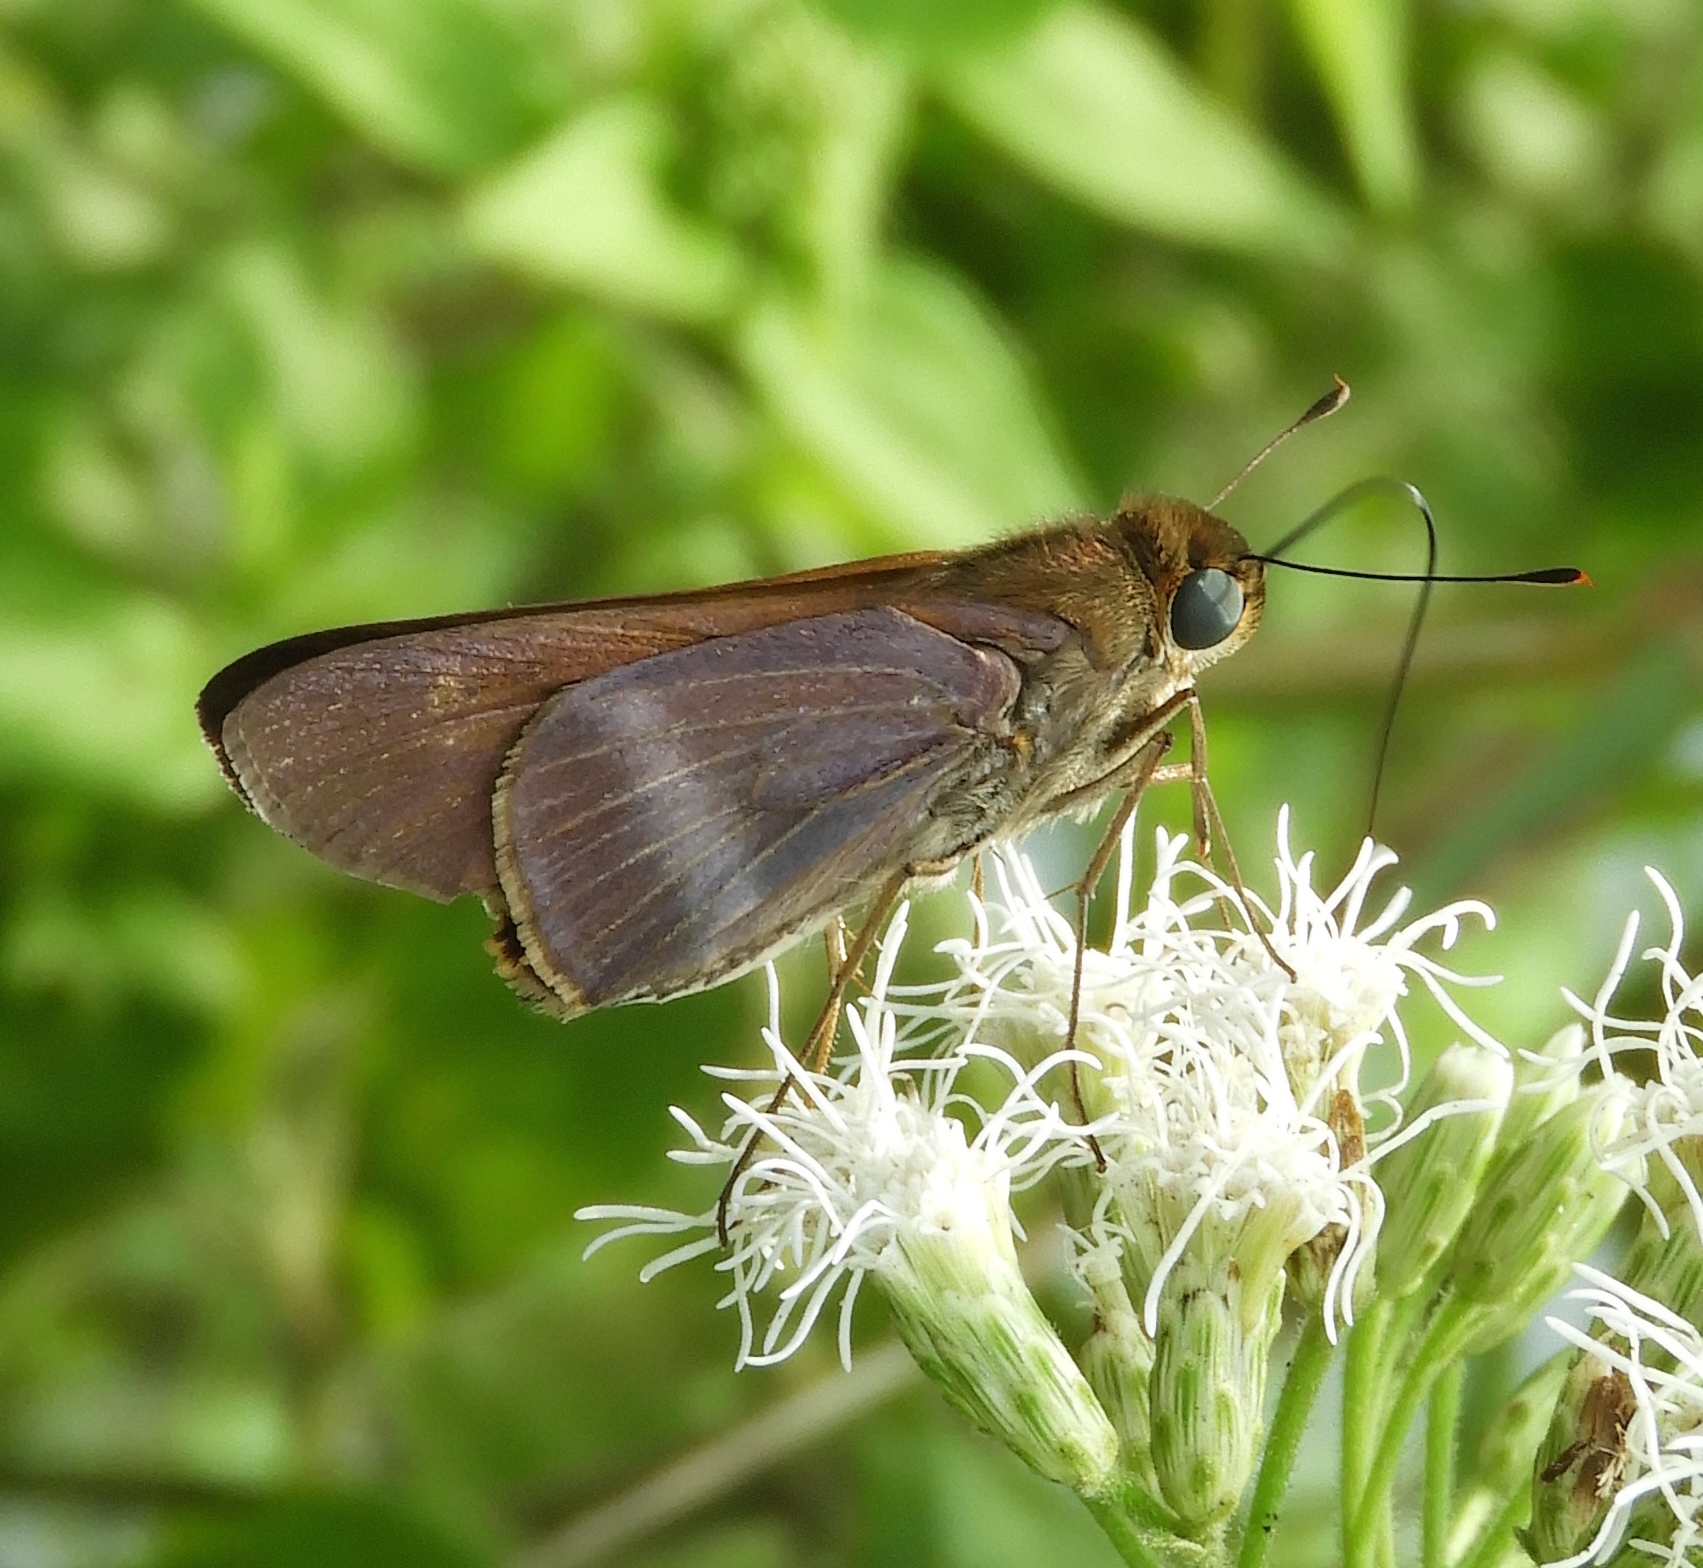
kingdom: Animalia
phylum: Arthropoda
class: Insecta
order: Lepidoptera
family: Hesperiidae
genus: Panoquina
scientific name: Panoquina fusina
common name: Evans' skipper
